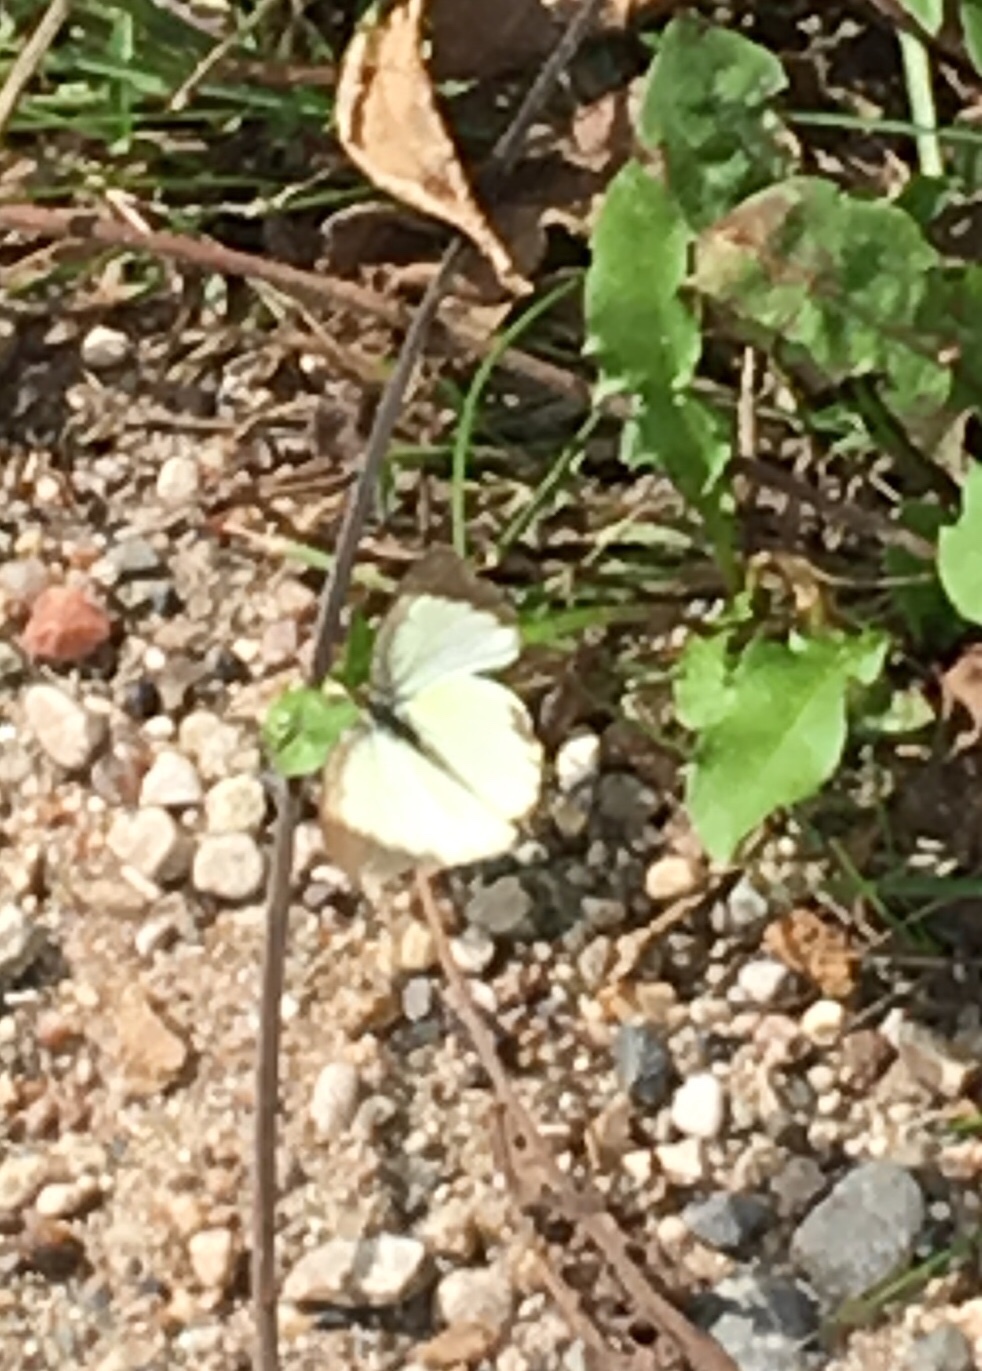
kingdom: Animalia
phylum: Arthropoda
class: Insecta
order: Lepidoptera
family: Pieridae
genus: Pyrisitia
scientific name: Pyrisitia lisa
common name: Little yellow
